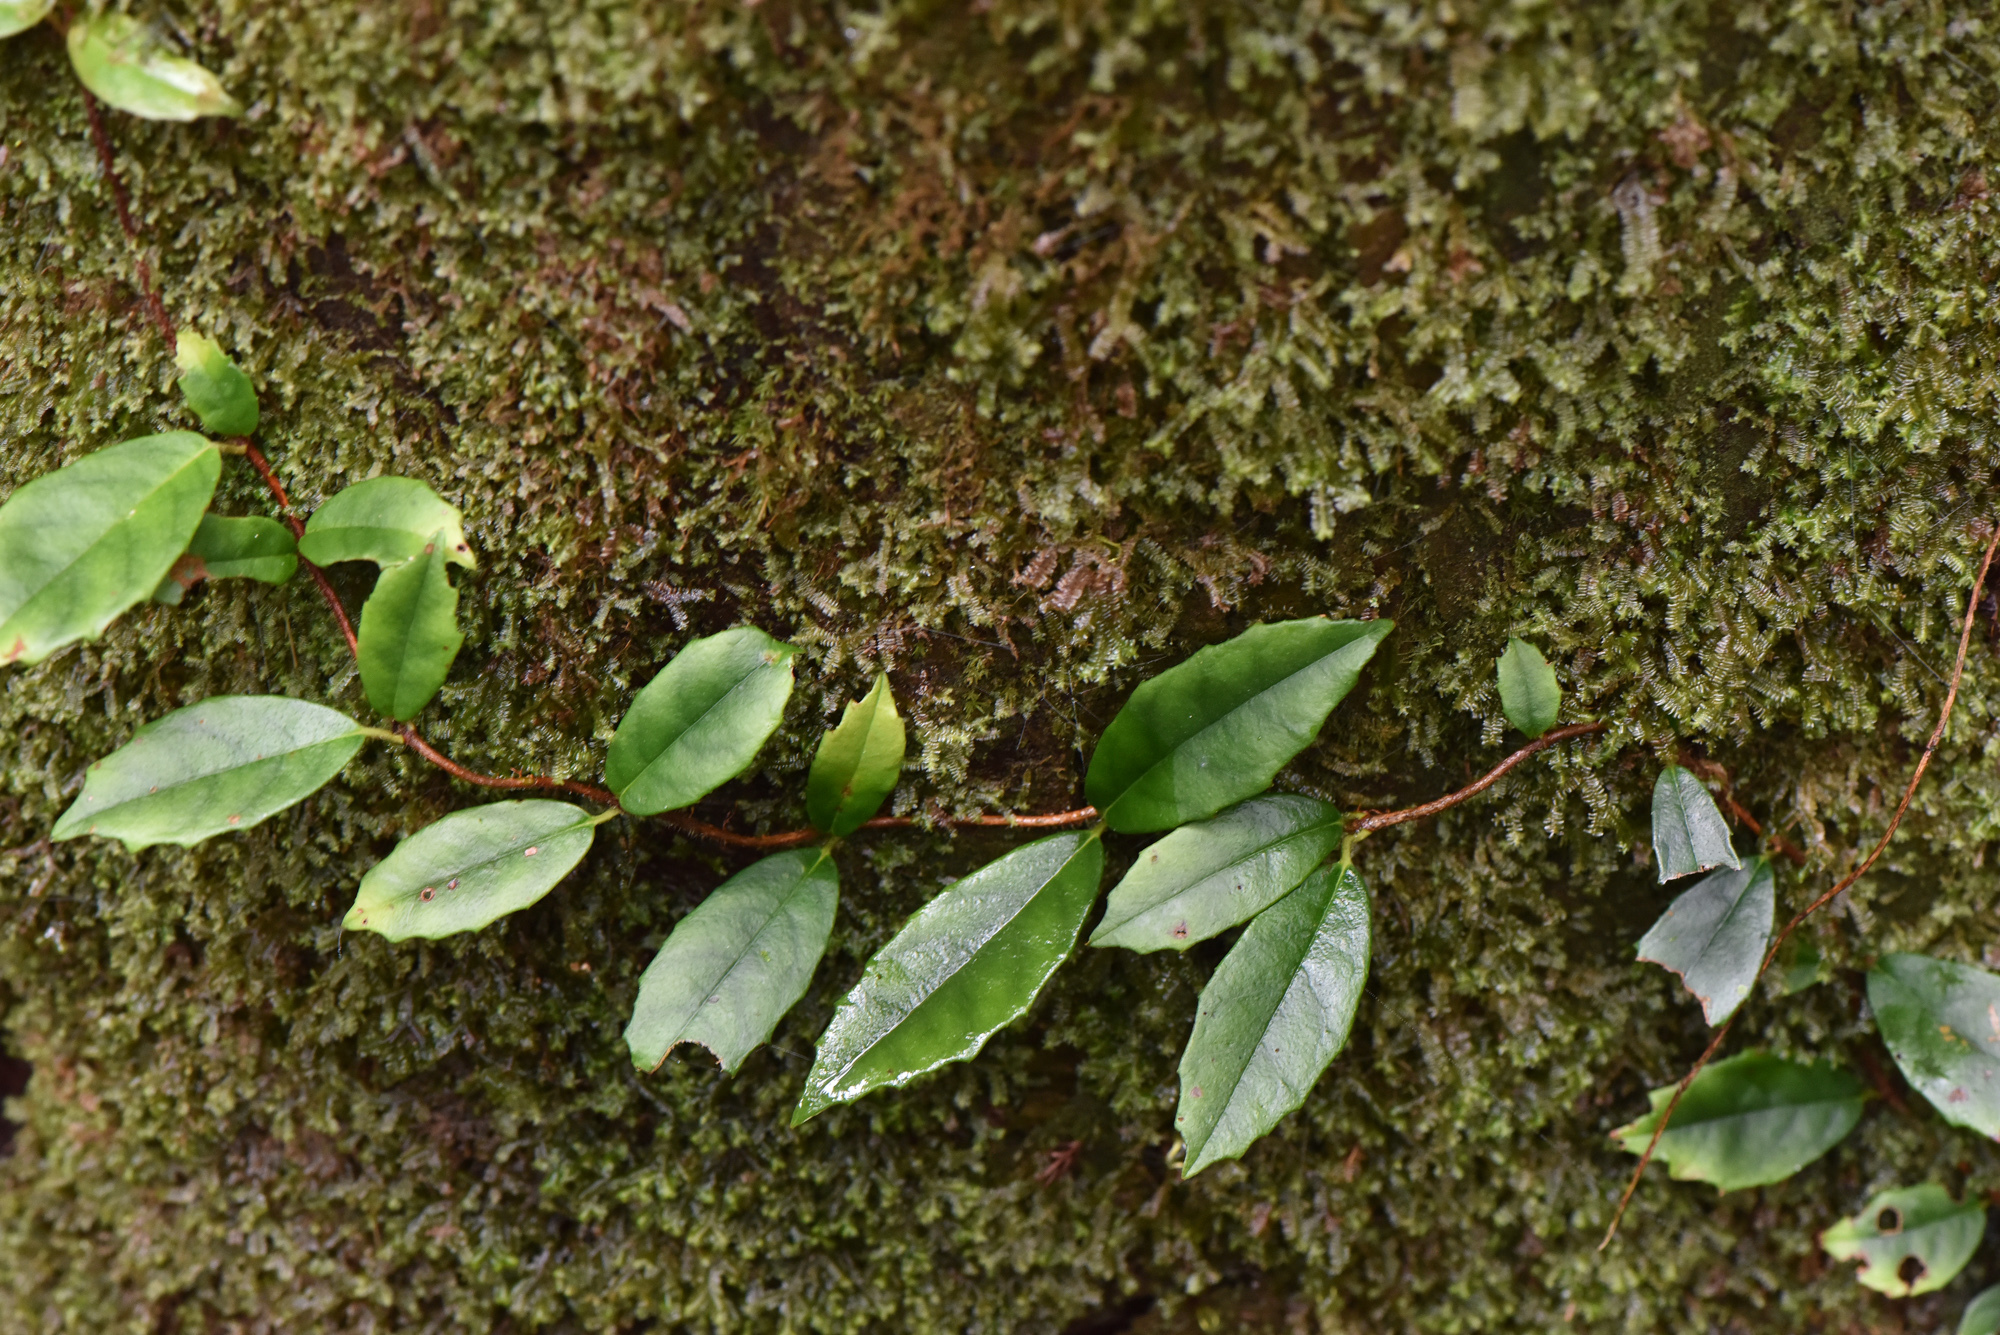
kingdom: Plantae
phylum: Tracheophyta
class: Magnoliopsida
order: Cornales
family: Hydrangeaceae
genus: Hydrangea
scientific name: Hydrangea integrifolia
